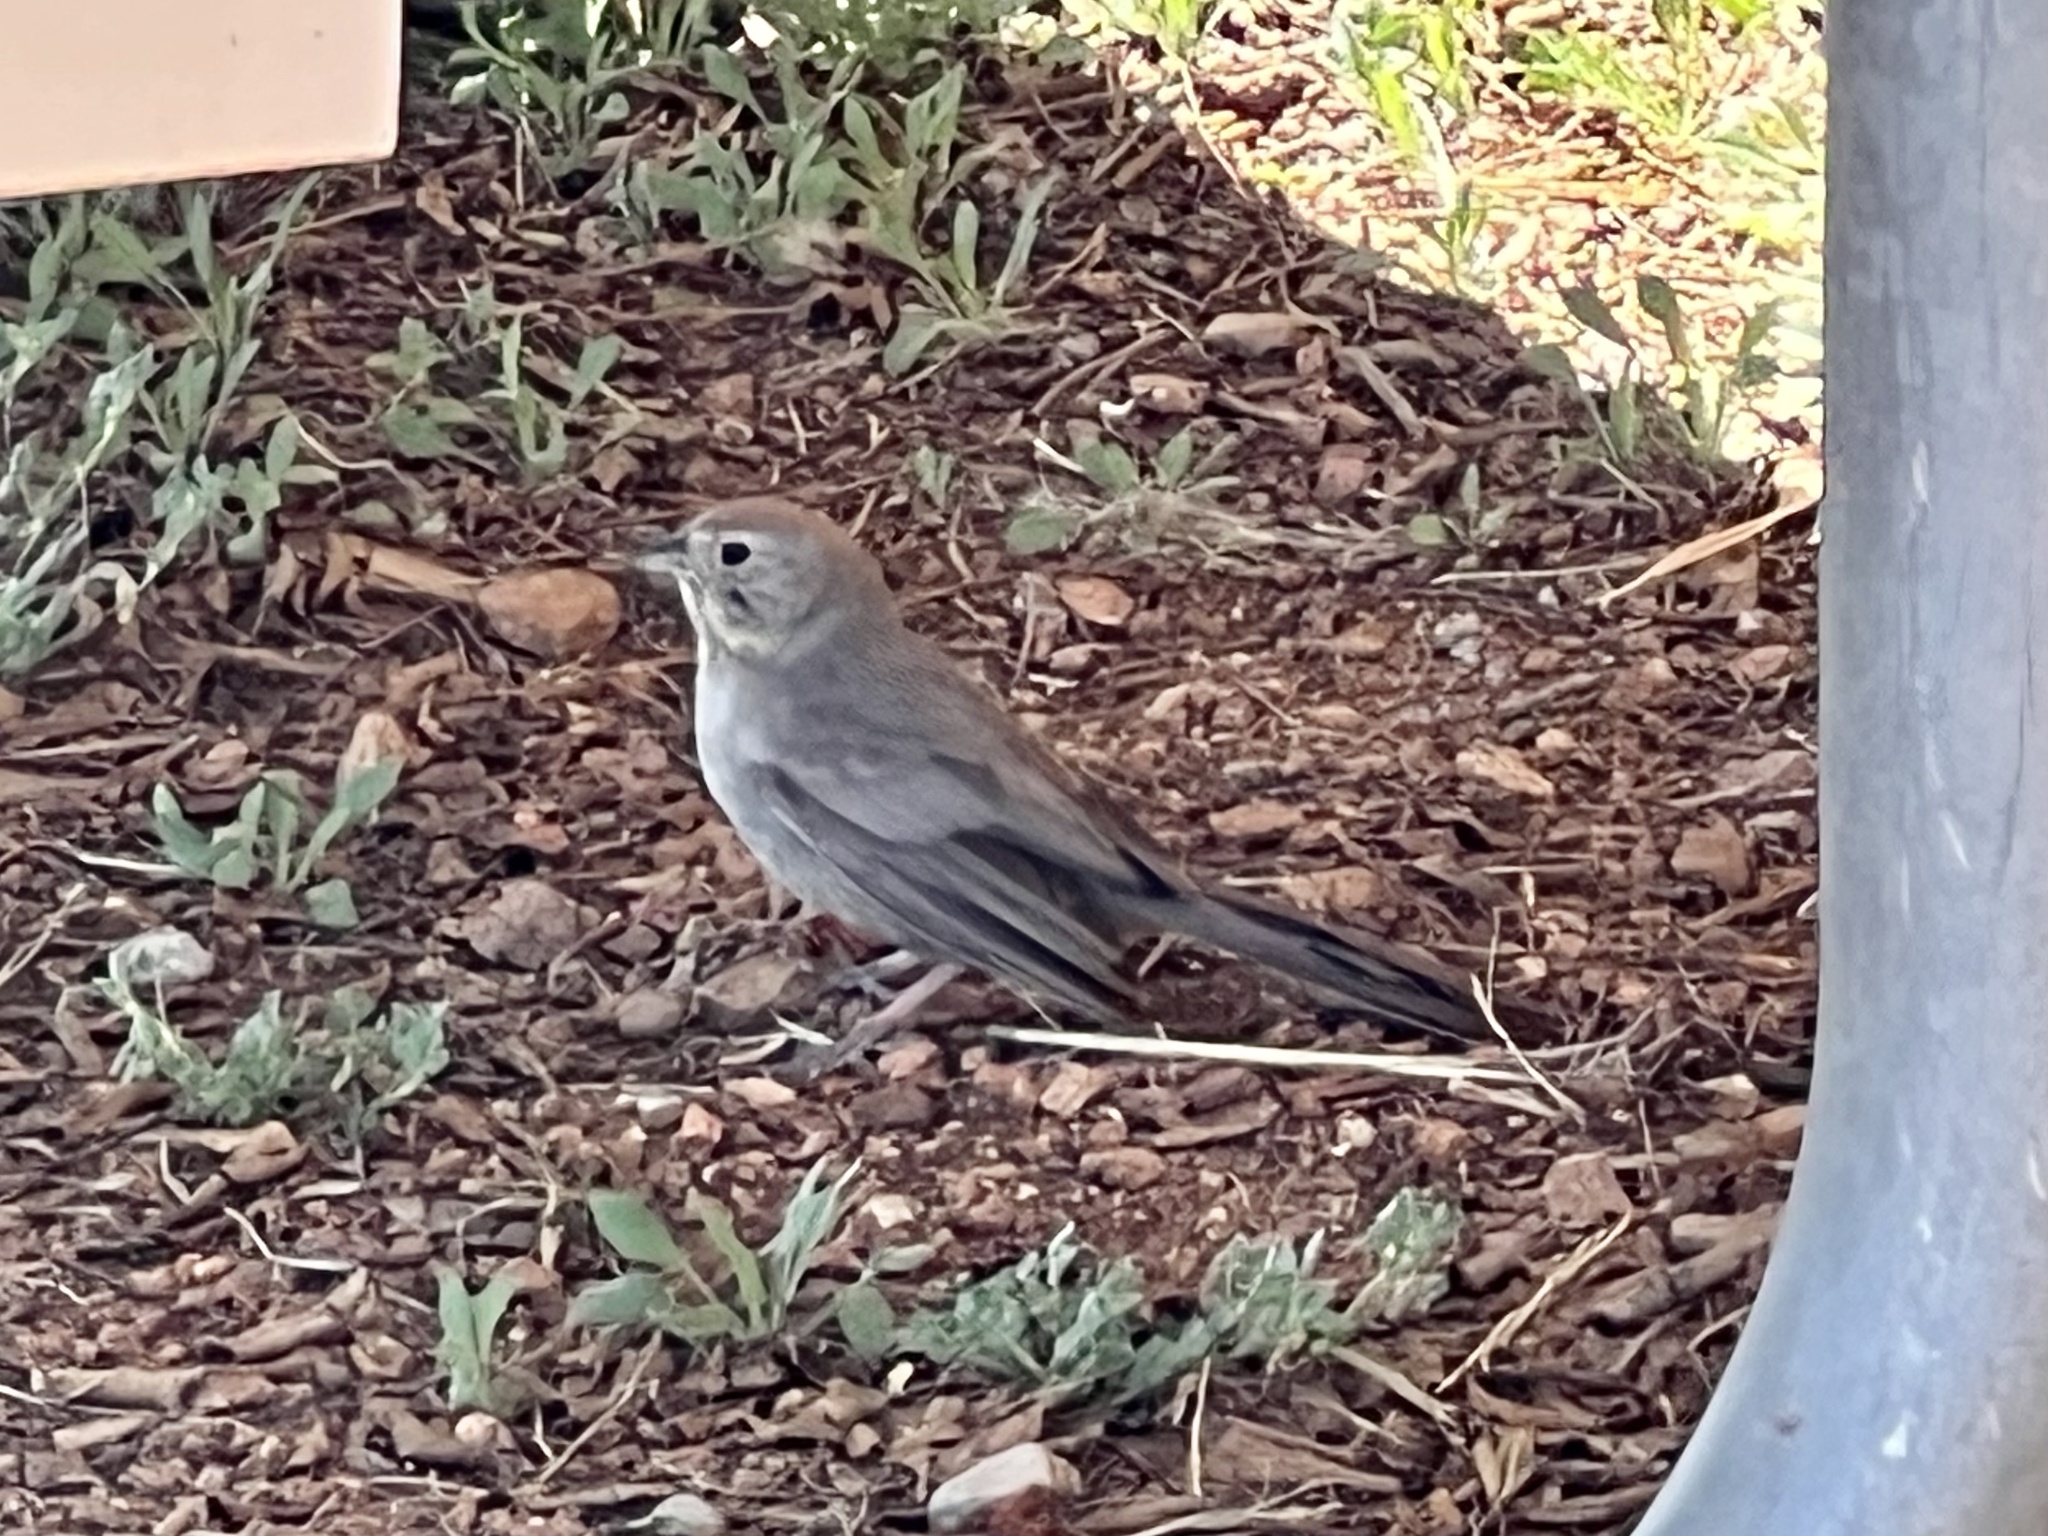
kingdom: Animalia
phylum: Chordata
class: Aves
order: Passeriformes
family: Passerellidae
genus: Melozone
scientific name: Melozone fusca
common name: Canyon towhee
